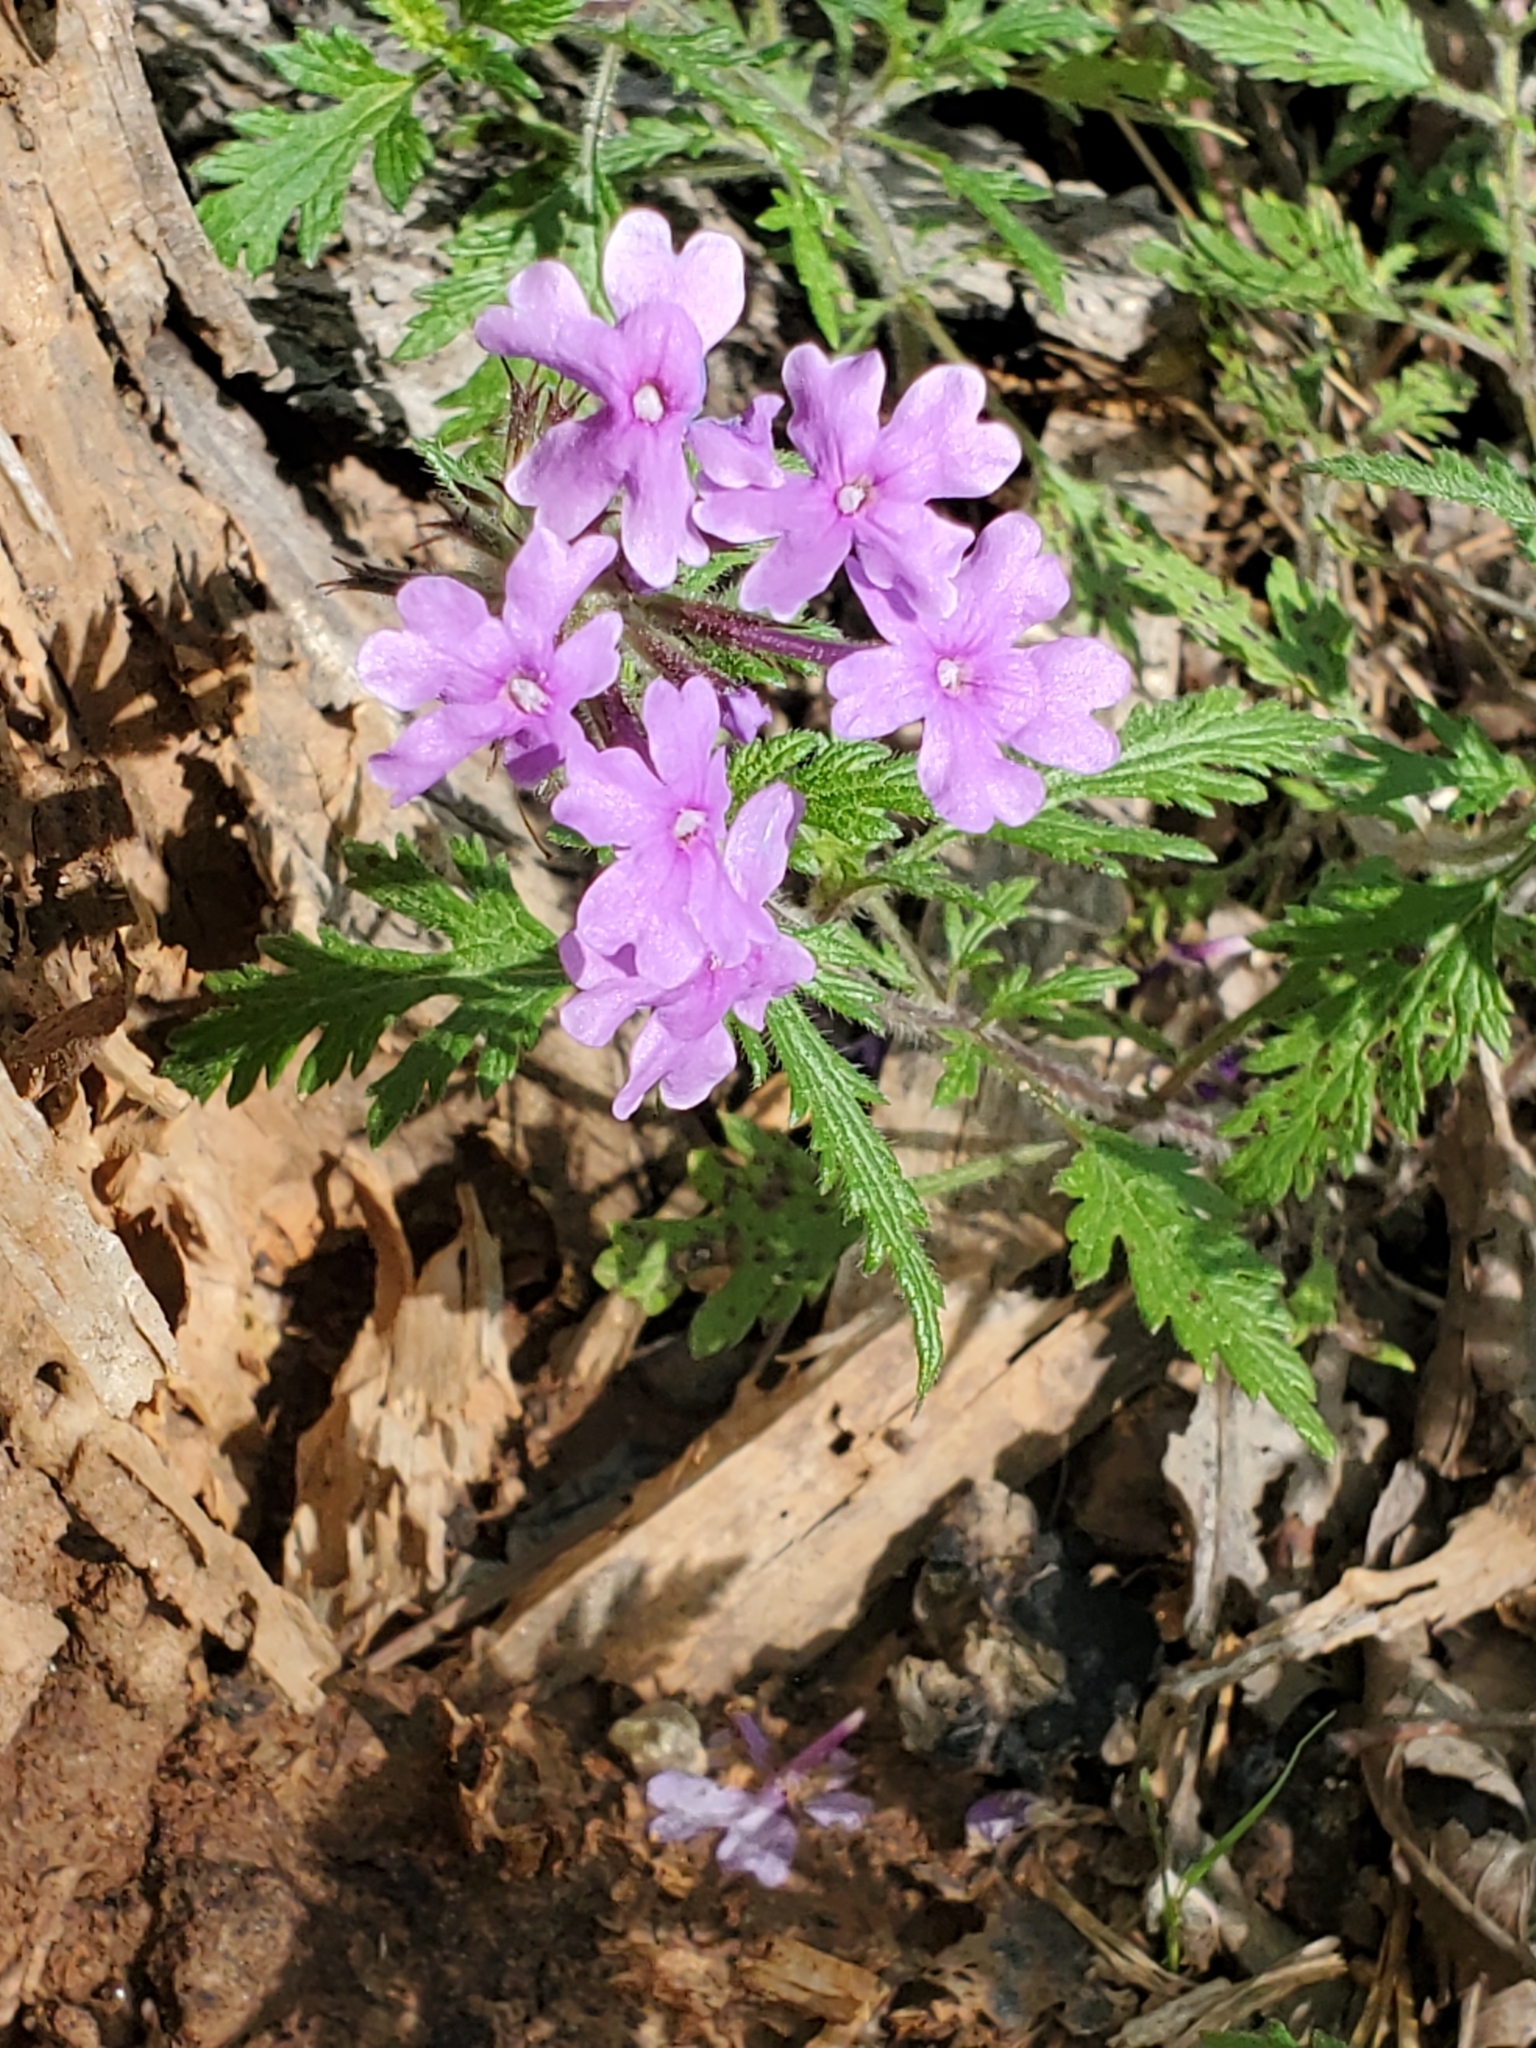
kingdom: Plantae
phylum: Tracheophyta
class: Magnoliopsida
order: Lamiales
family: Verbenaceae
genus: Verbena
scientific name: Verbena canadensis
